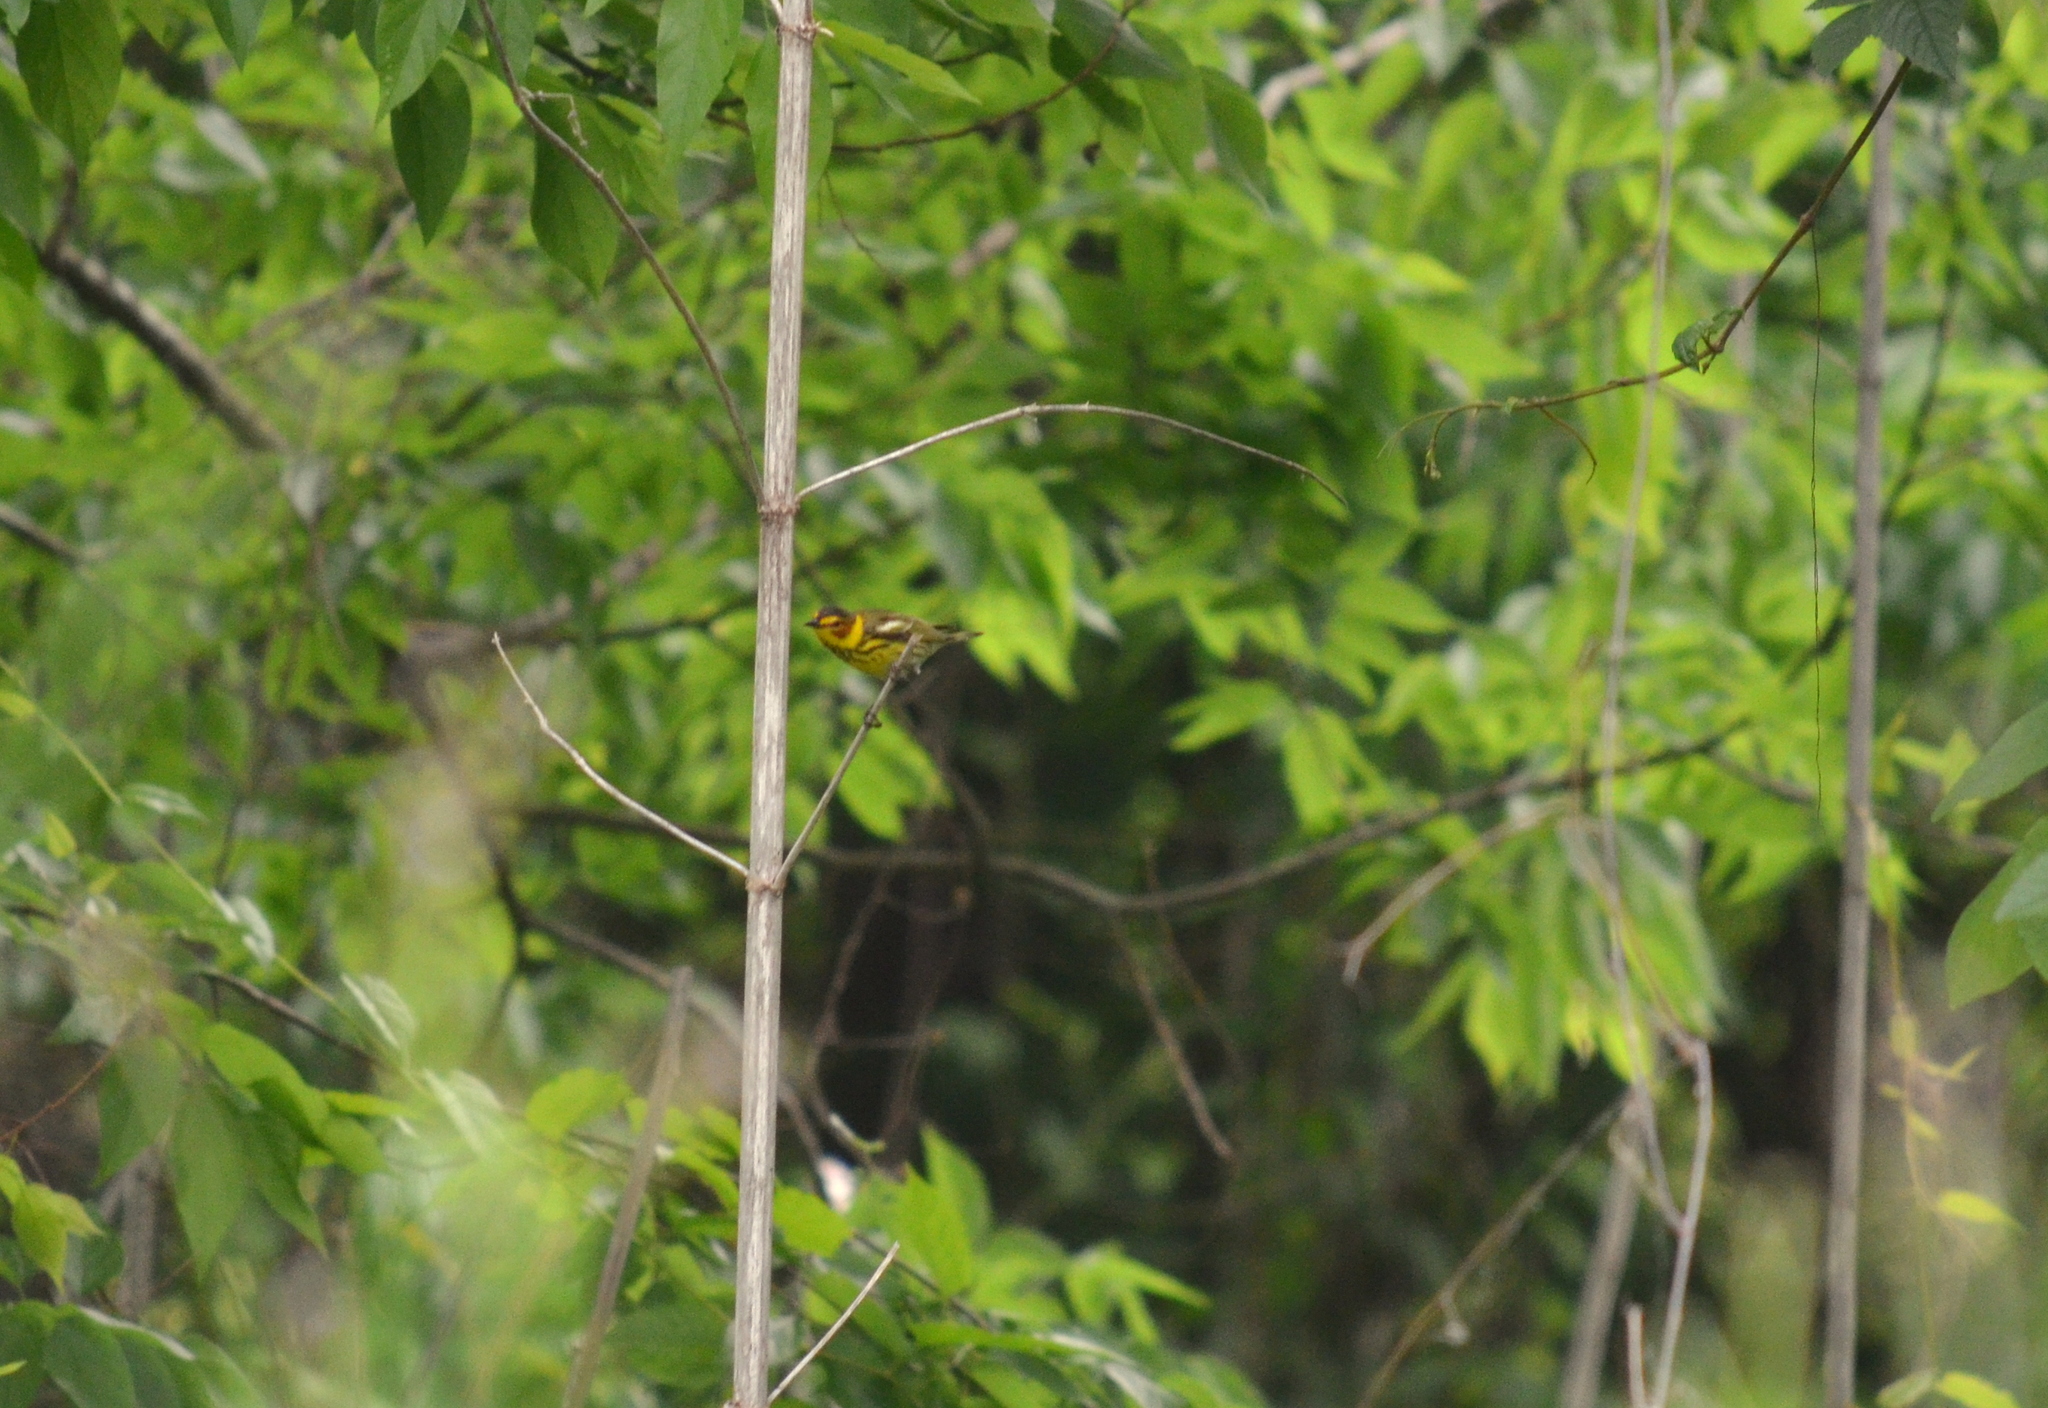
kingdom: Animalia
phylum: Chordata
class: Aves
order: Passeriformes
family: Parulidae
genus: Setophaga
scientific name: Setophaga tigrina
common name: Cape may warbler
